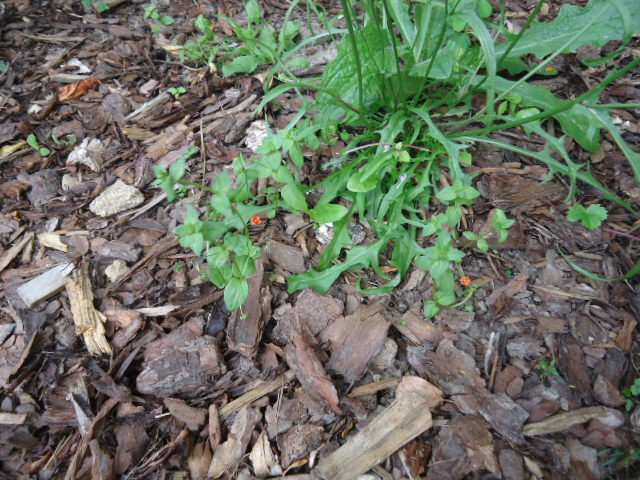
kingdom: Plantae
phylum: Tracheophyta
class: Magnoliopsida
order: Ericales
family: Primulaceae
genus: Lysimachia
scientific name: Lysimachia arvensis
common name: Scarlet pimpernel
